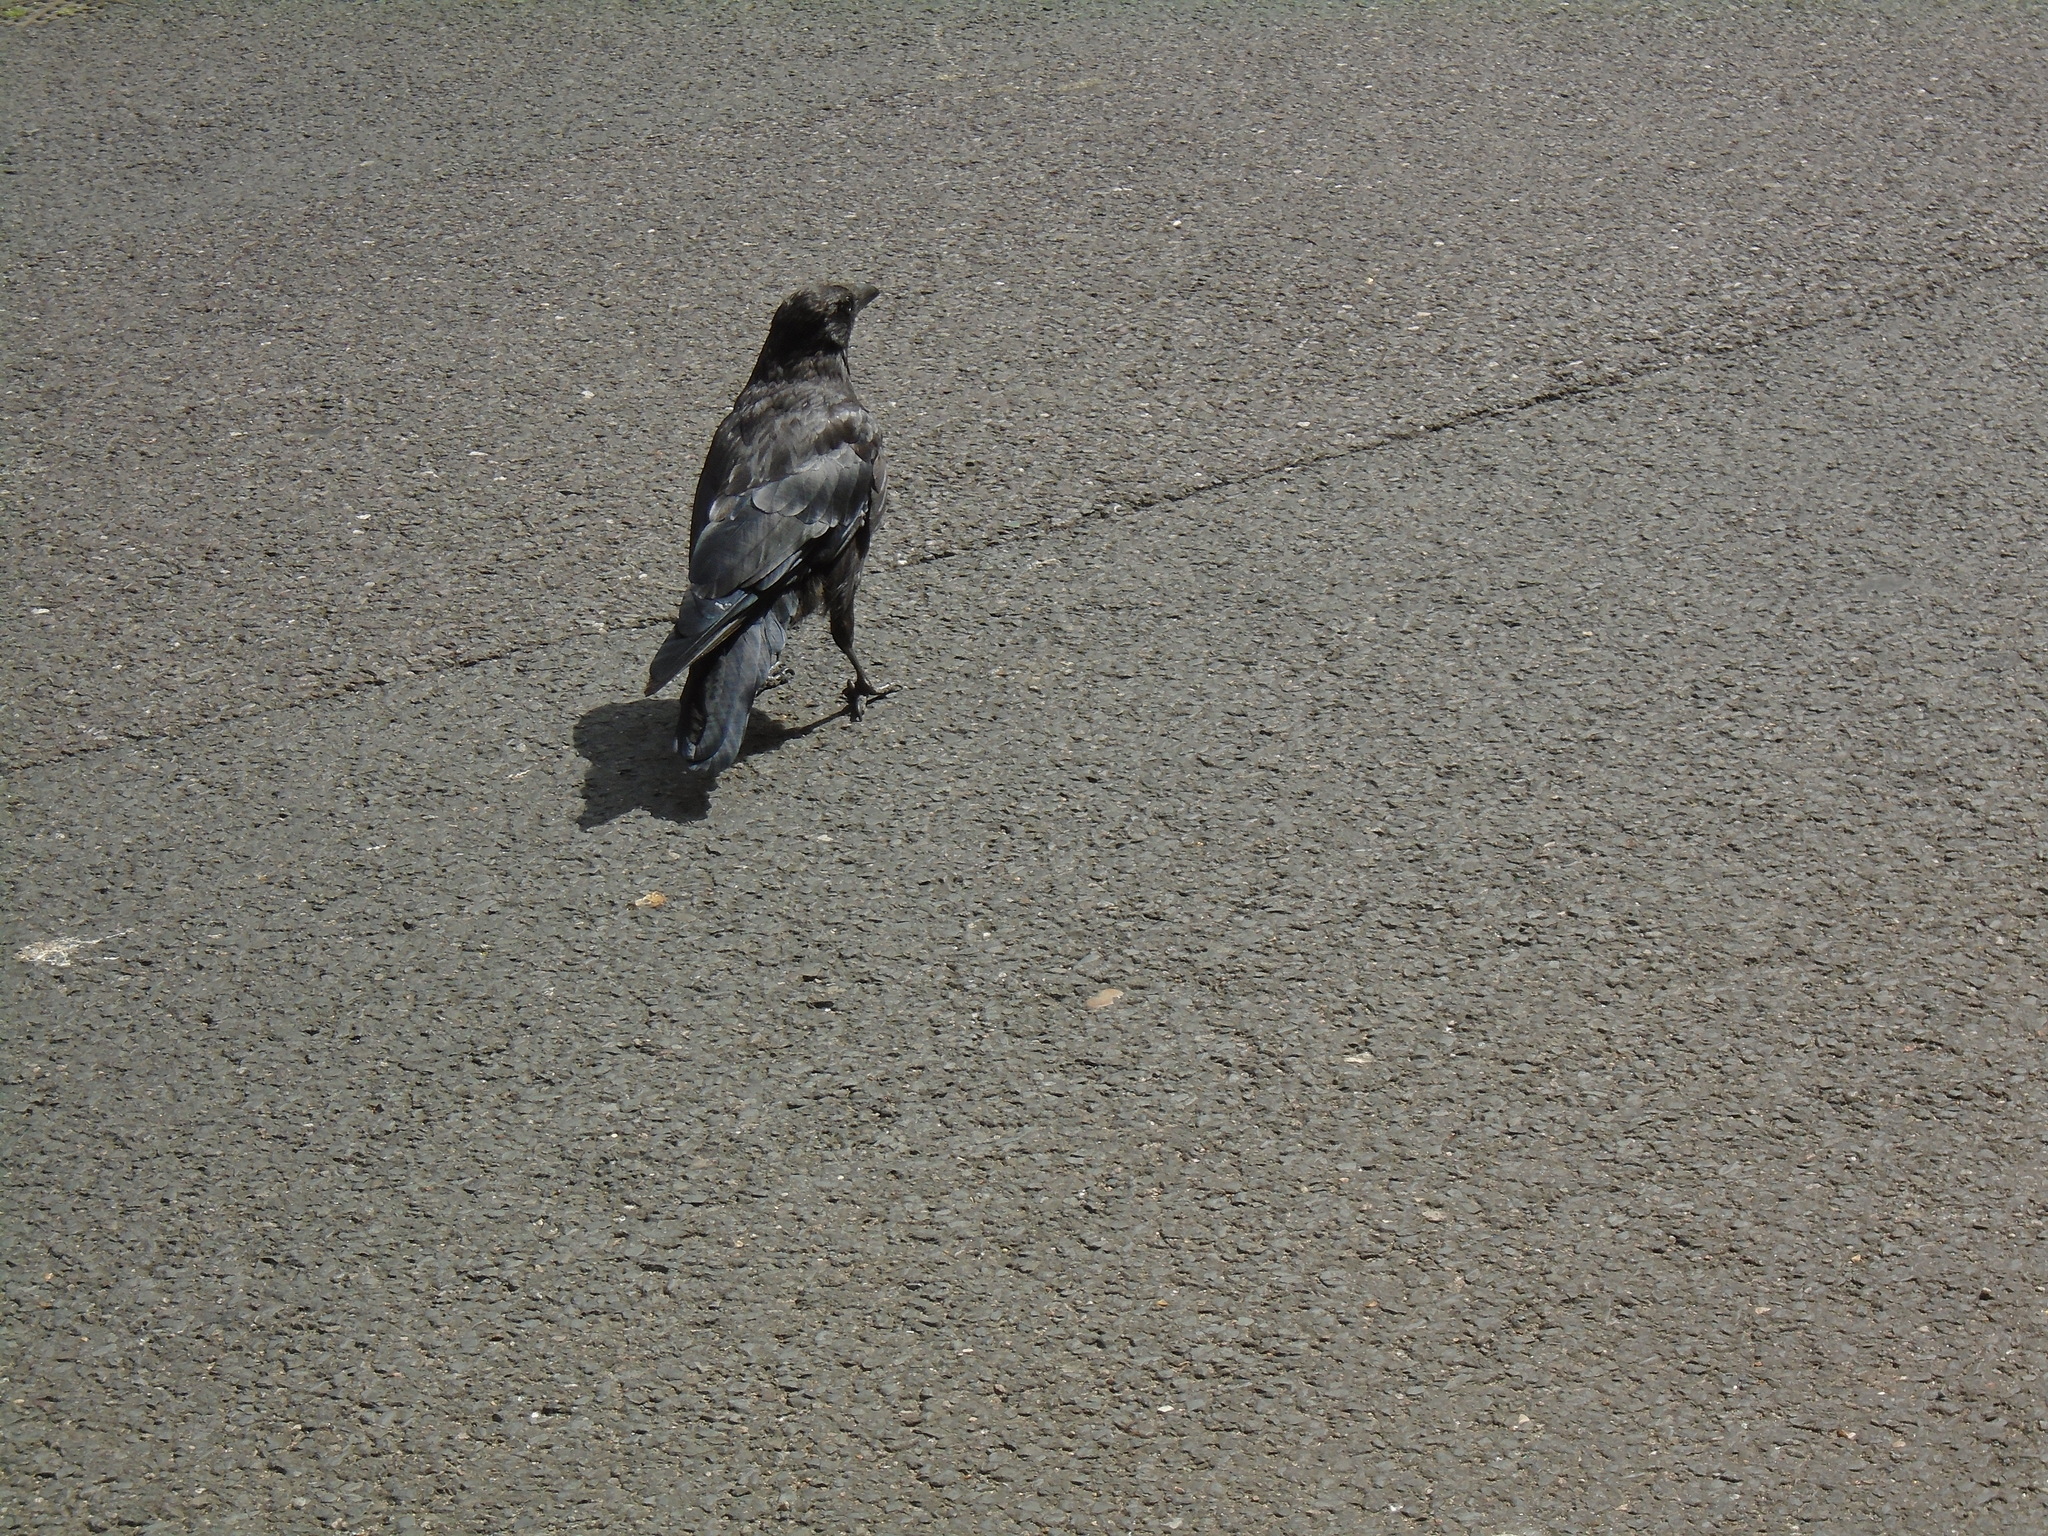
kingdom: Animalia
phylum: Chordata
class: Aves
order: Passeriformes
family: Corvidae
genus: Corvus
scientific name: Corvus corone
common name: Carrion crow
